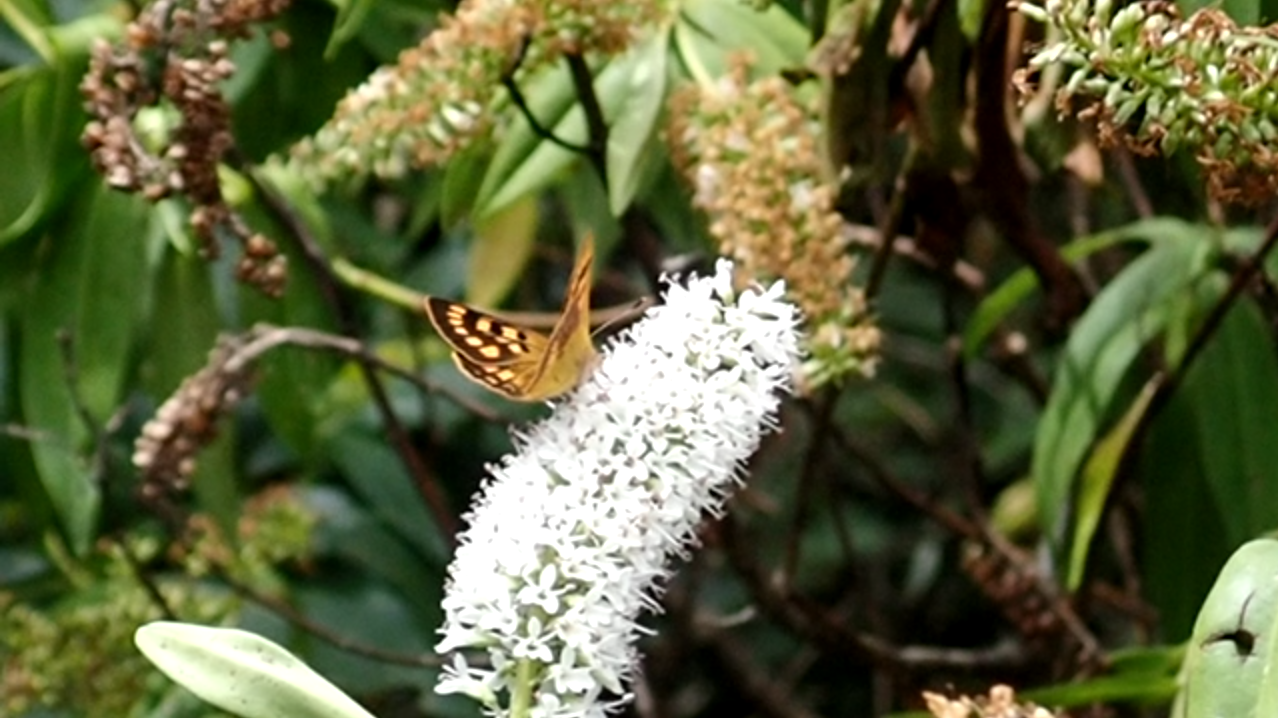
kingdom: Animalia
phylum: Arthropoda
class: Insecta
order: Lepidoptera
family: Lycaenidae
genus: Lycaena
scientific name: Lycaena
